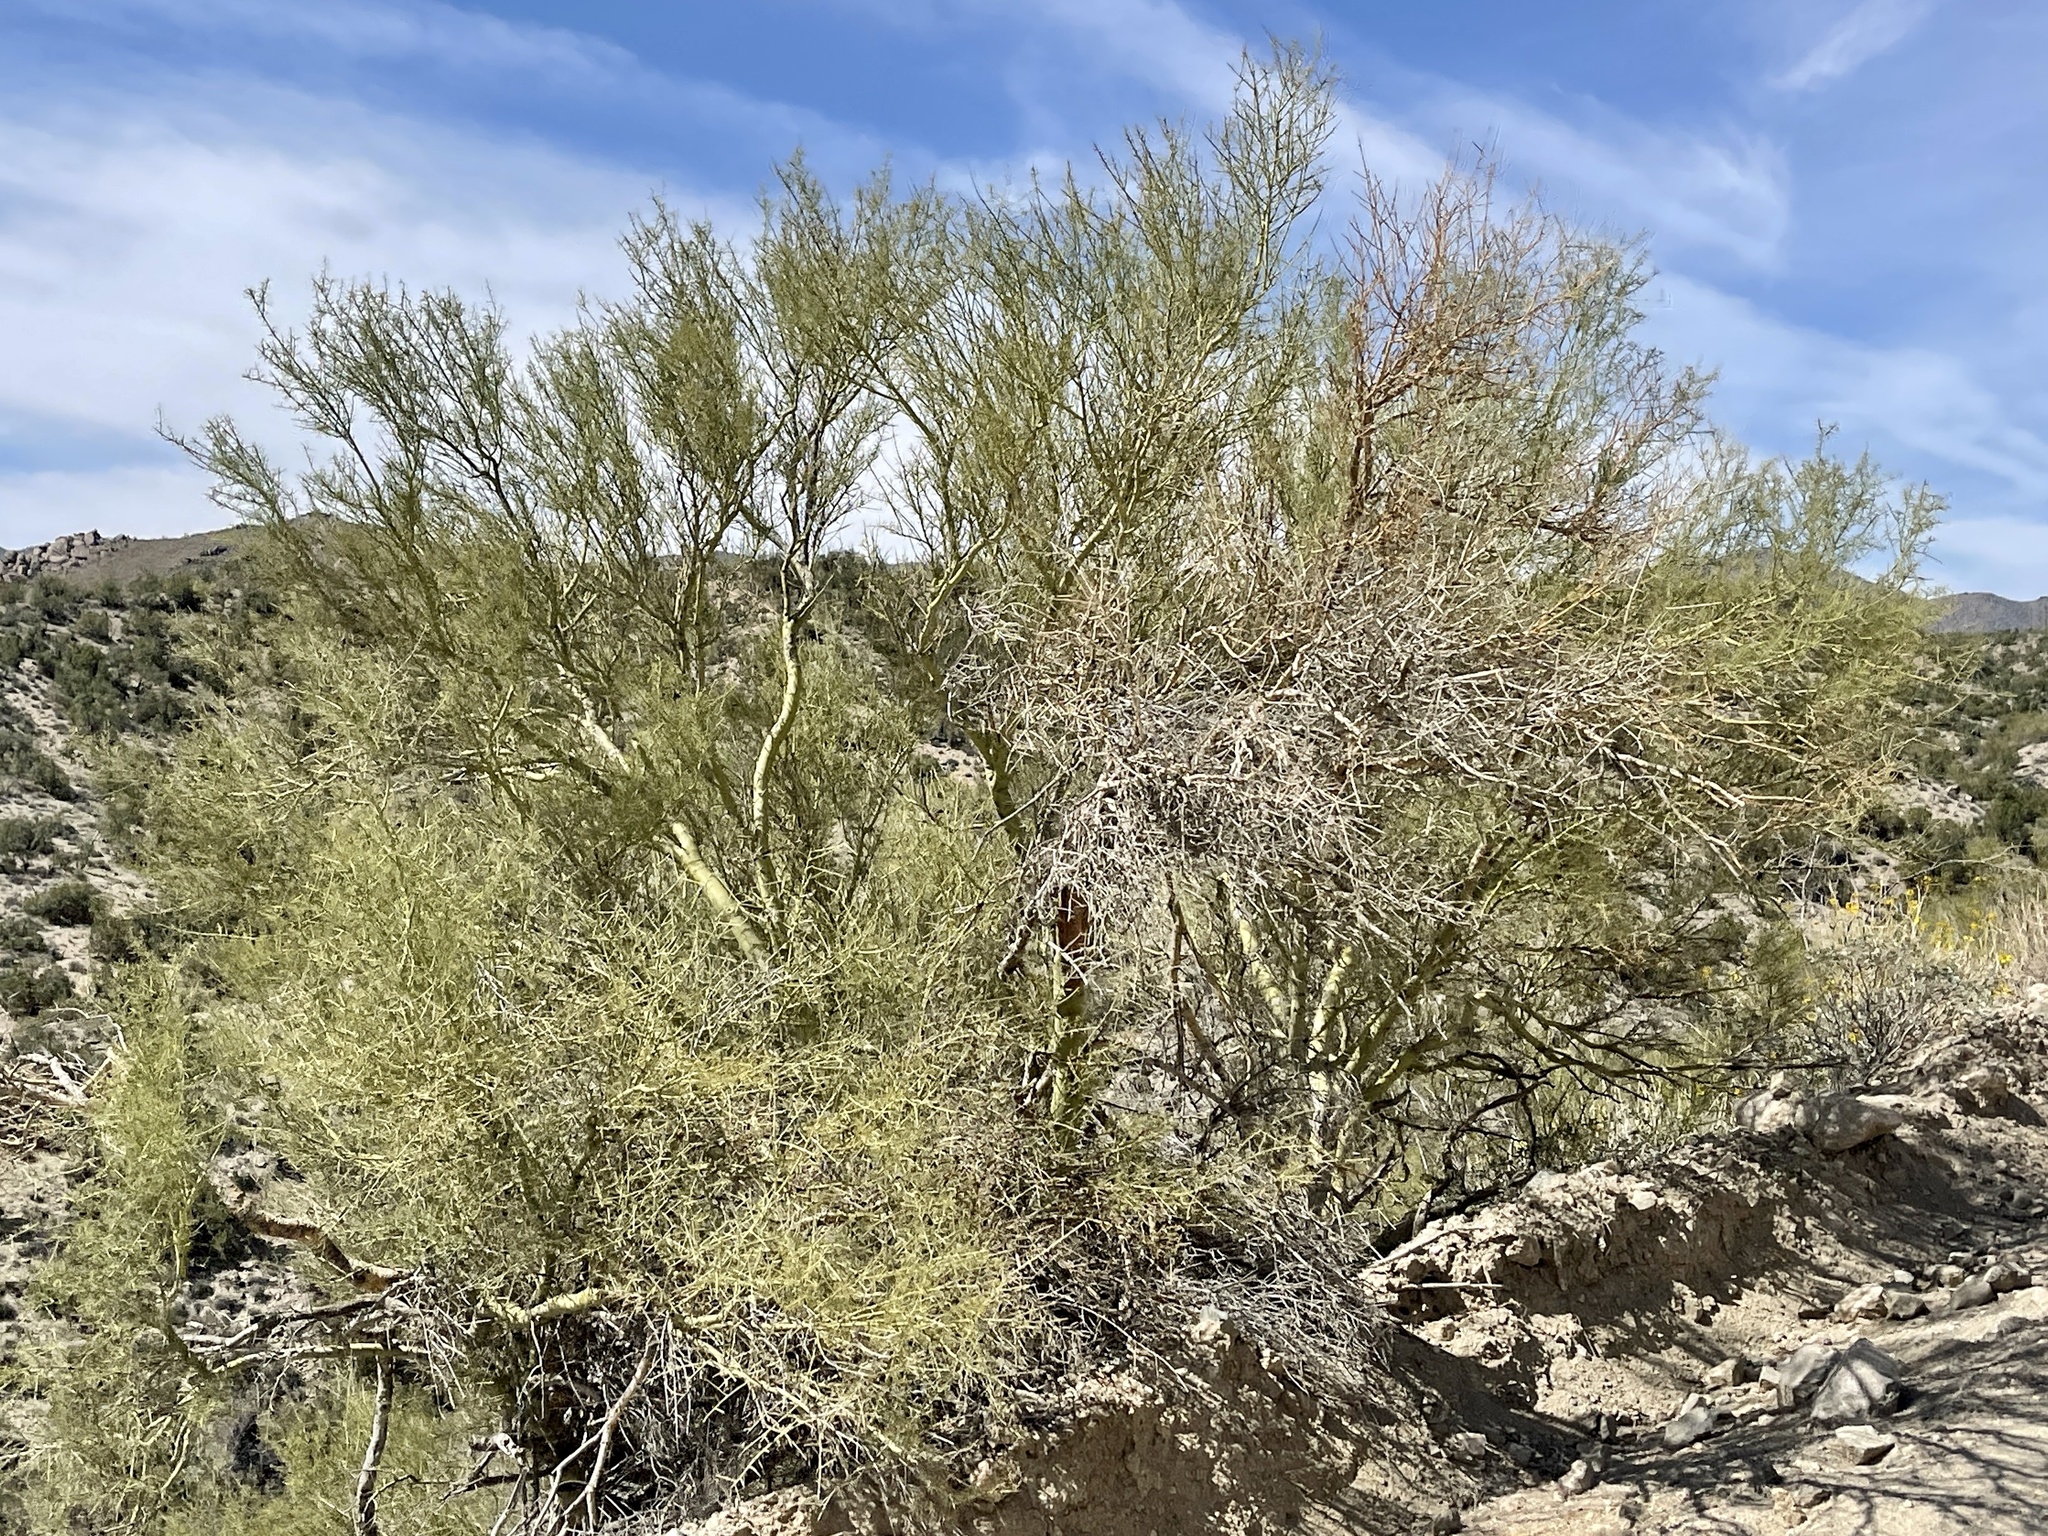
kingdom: Plantae
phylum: Tracheophyta
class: Magnoliopsida
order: Fabales
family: Fabaceae
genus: Parkinsonia
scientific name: Parkinsonia microphylla
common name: Yellow paloverde
